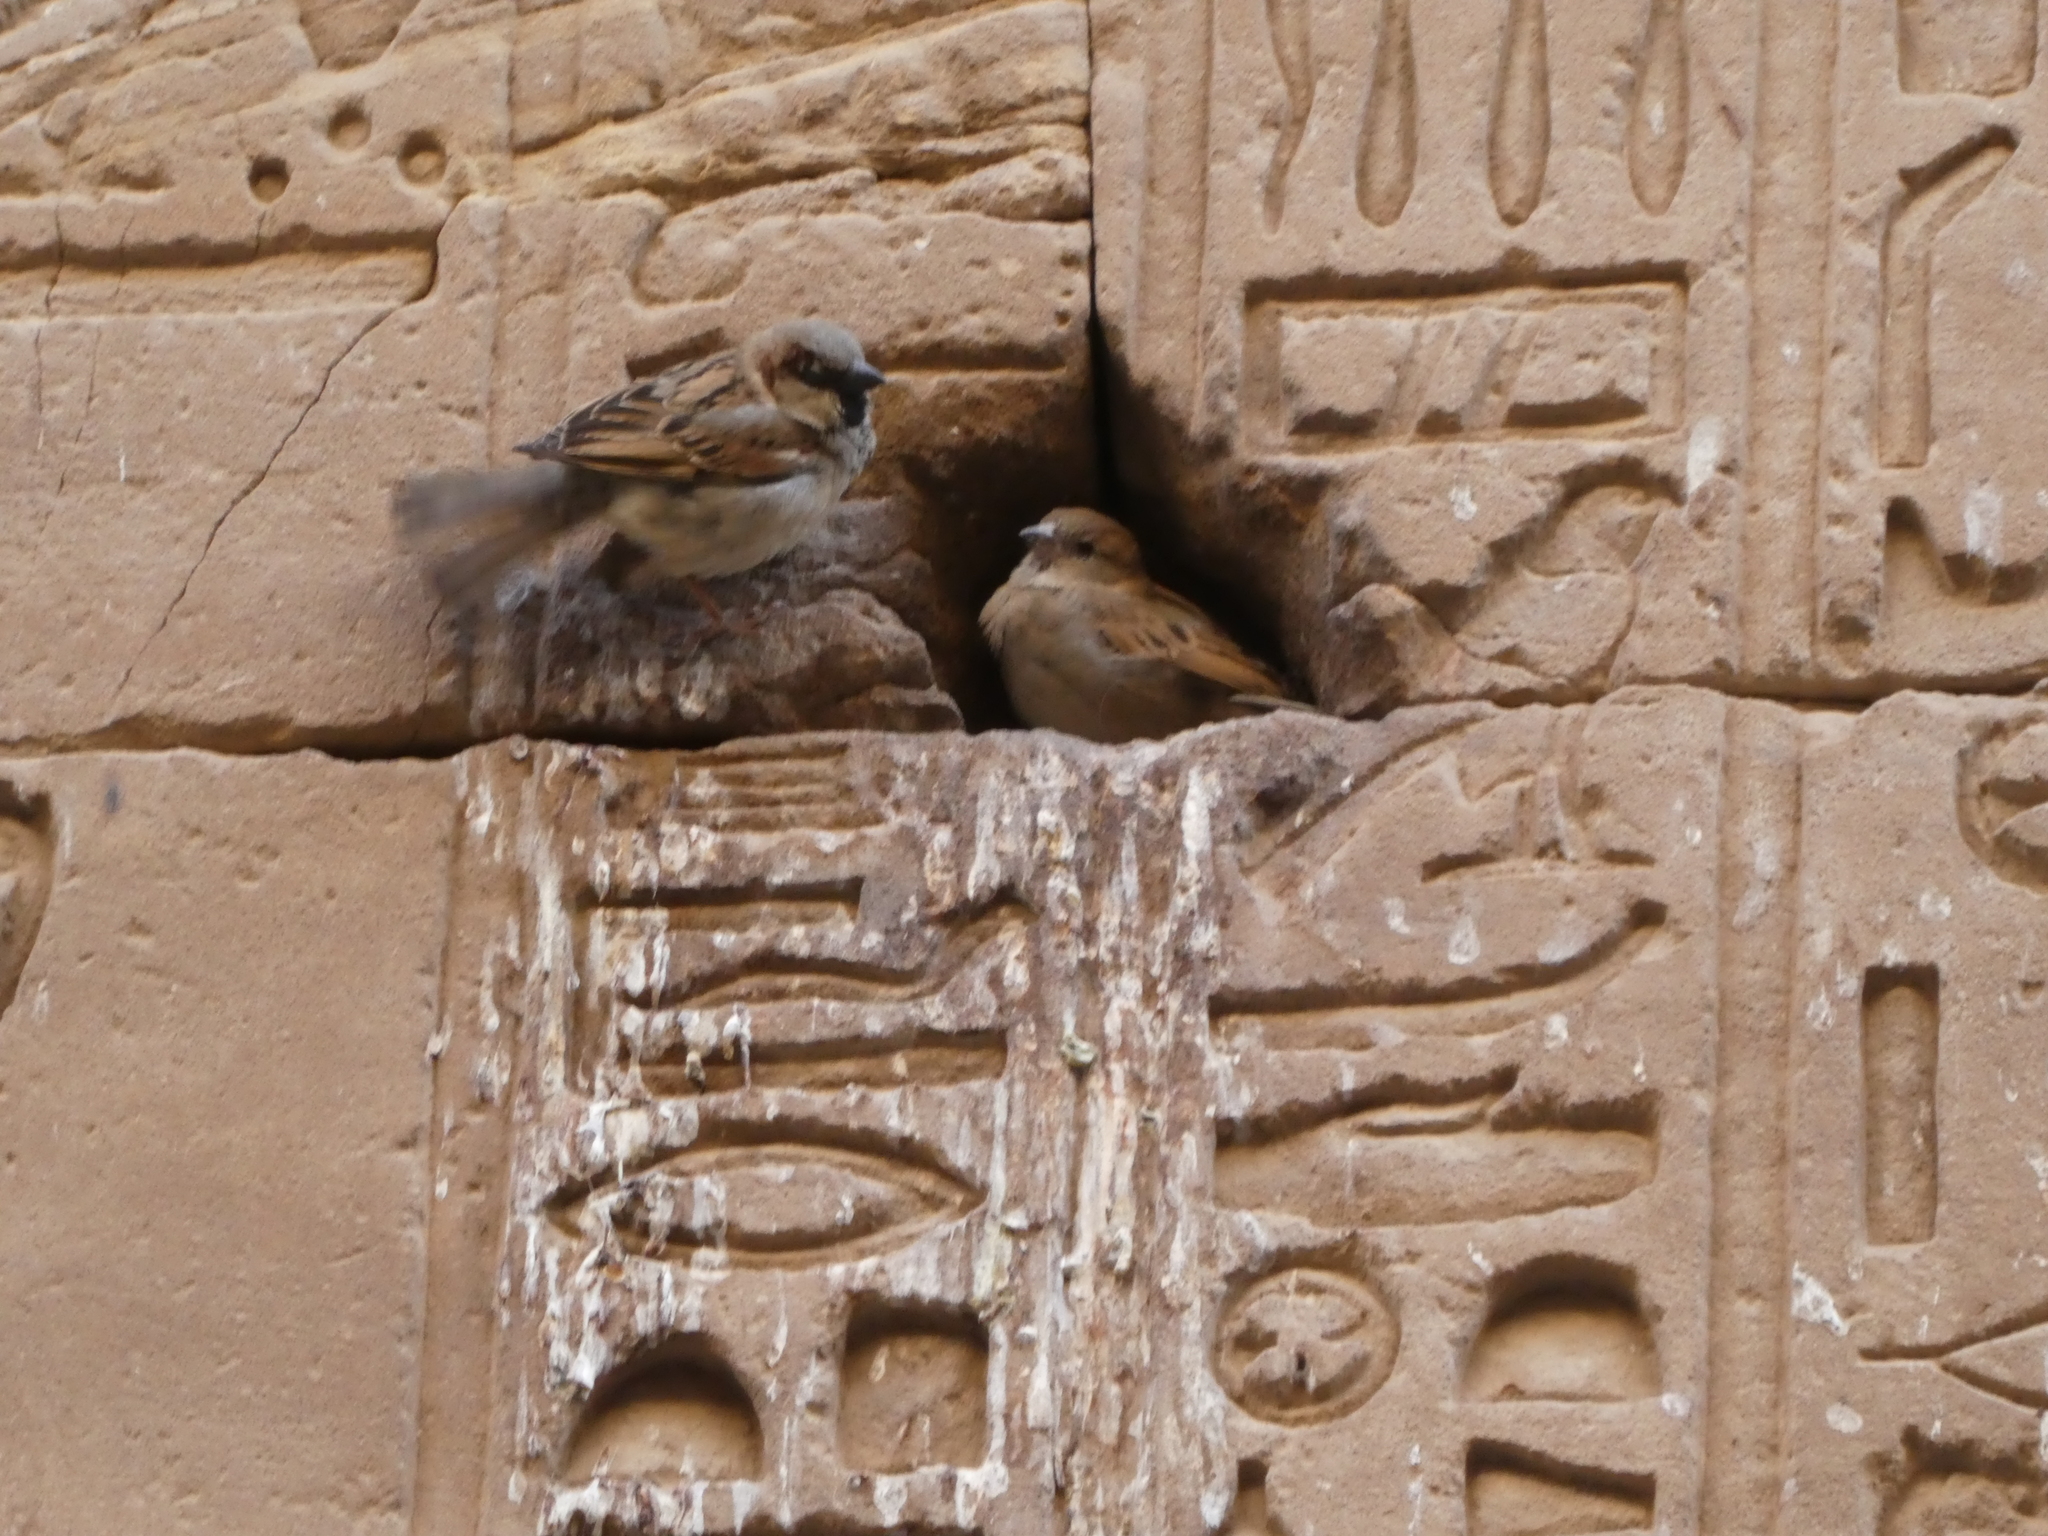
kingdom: Animalia
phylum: Chordata
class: Aves
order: Passeriformes
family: Passeridae
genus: Passer
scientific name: Passer domesticus
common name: House sparrow
